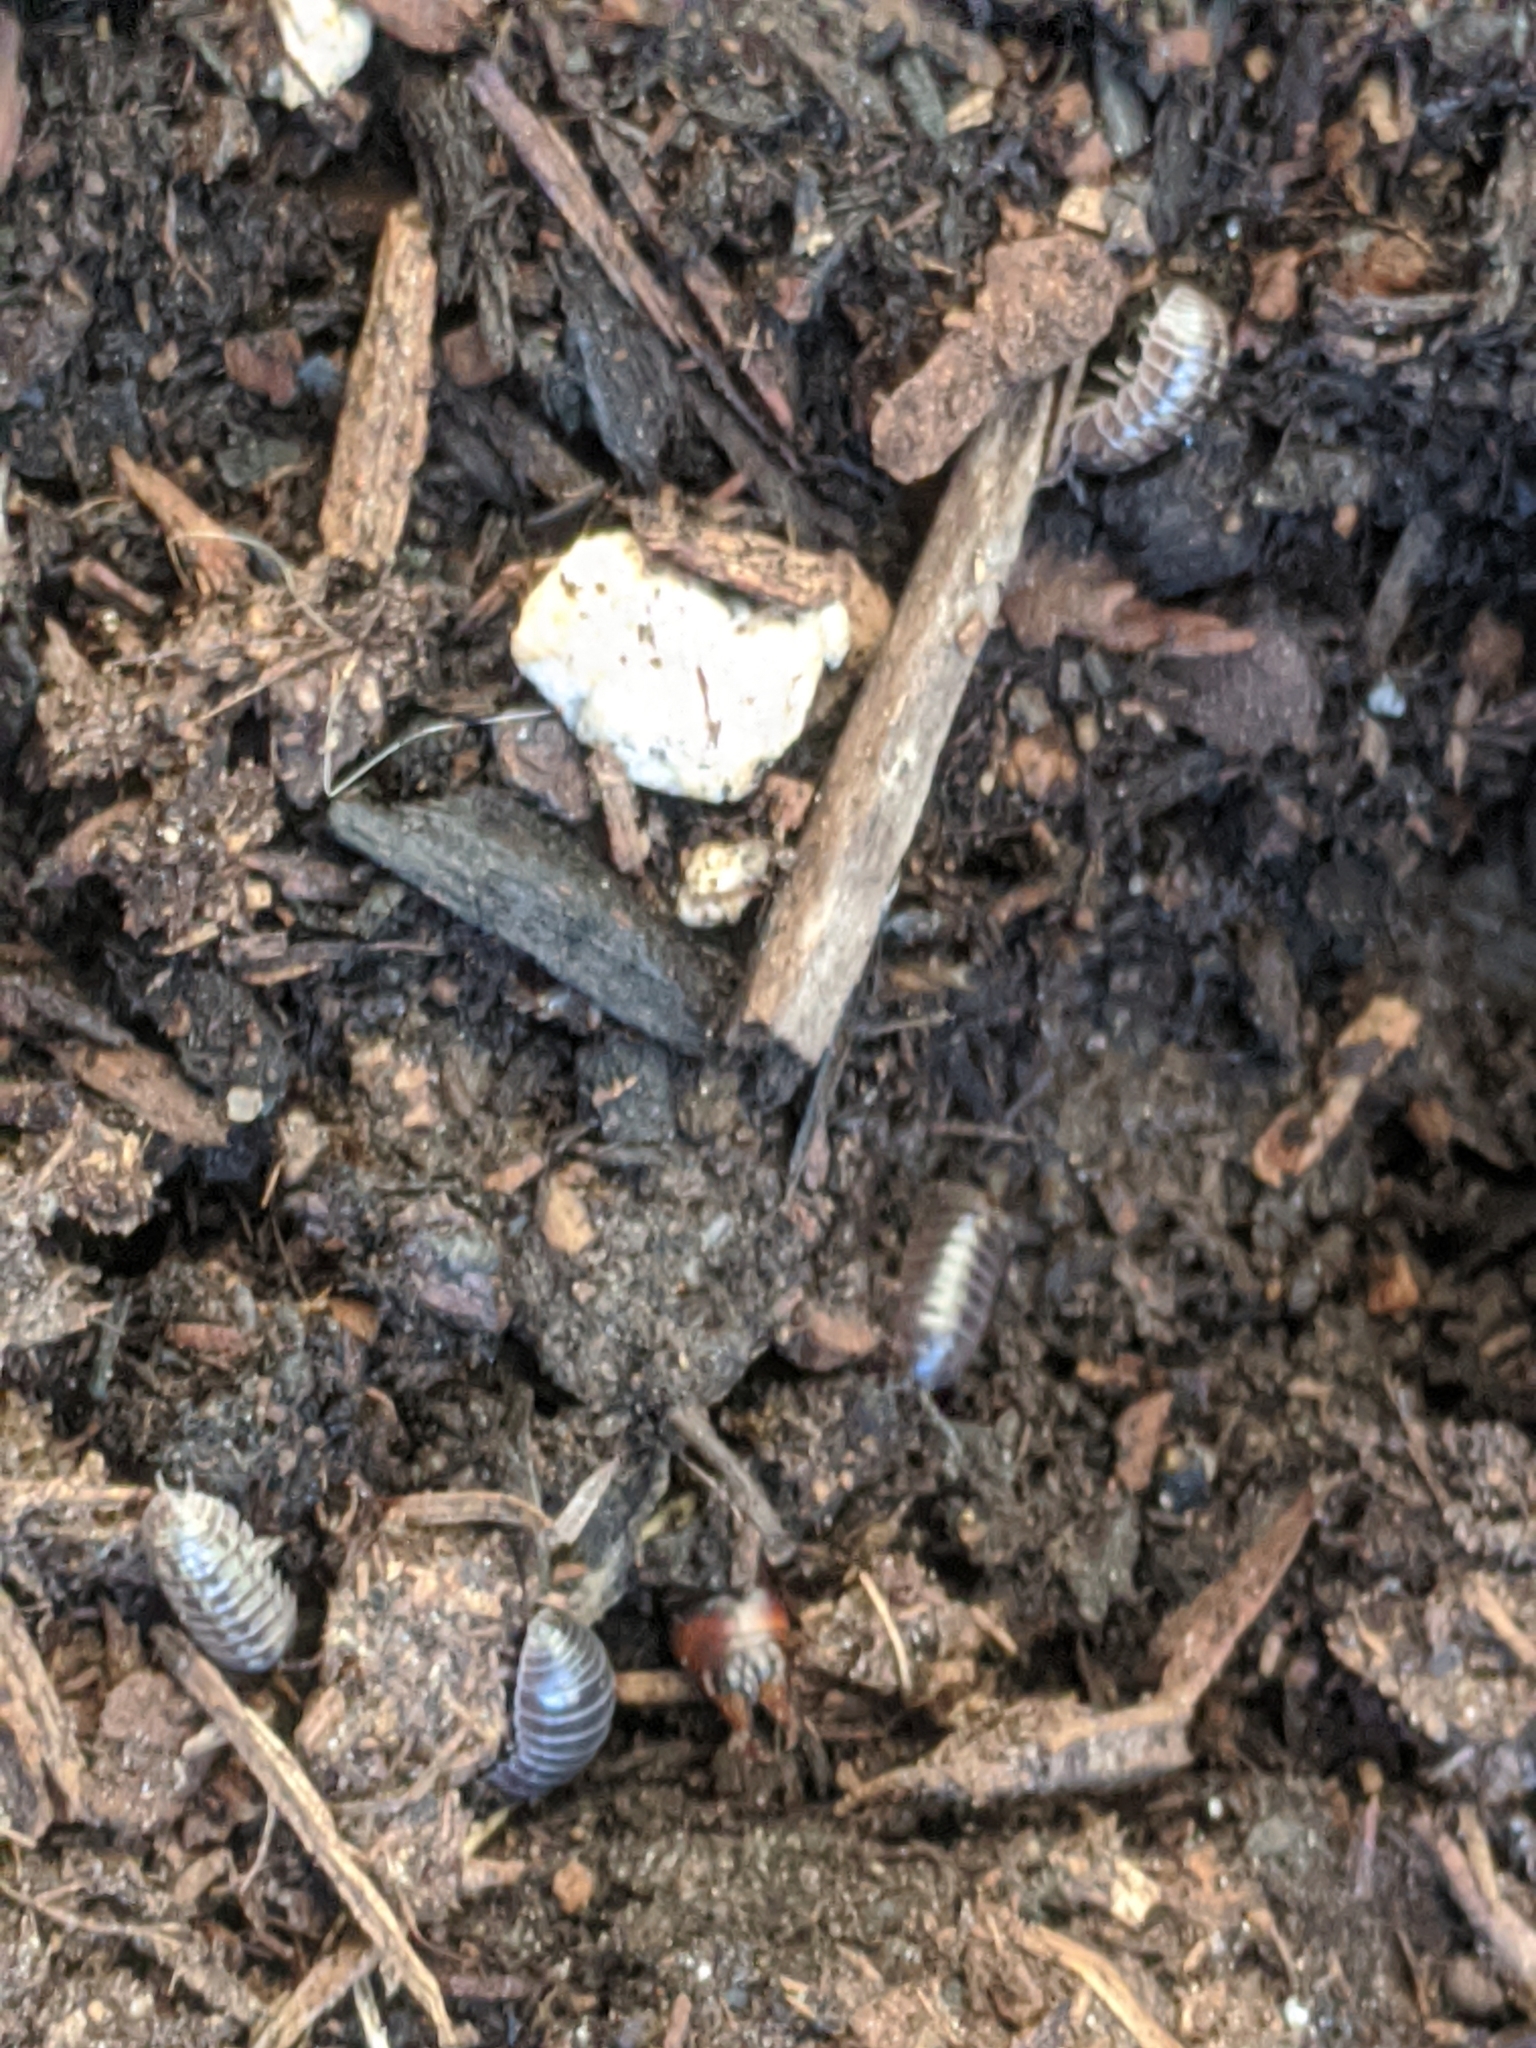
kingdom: Animalia
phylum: Arthropoda
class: Malacostraca
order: Isopoda
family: Armadillidiidae
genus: Armadillidium
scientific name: Armadillidium vulgare
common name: Common pill woodlouse
